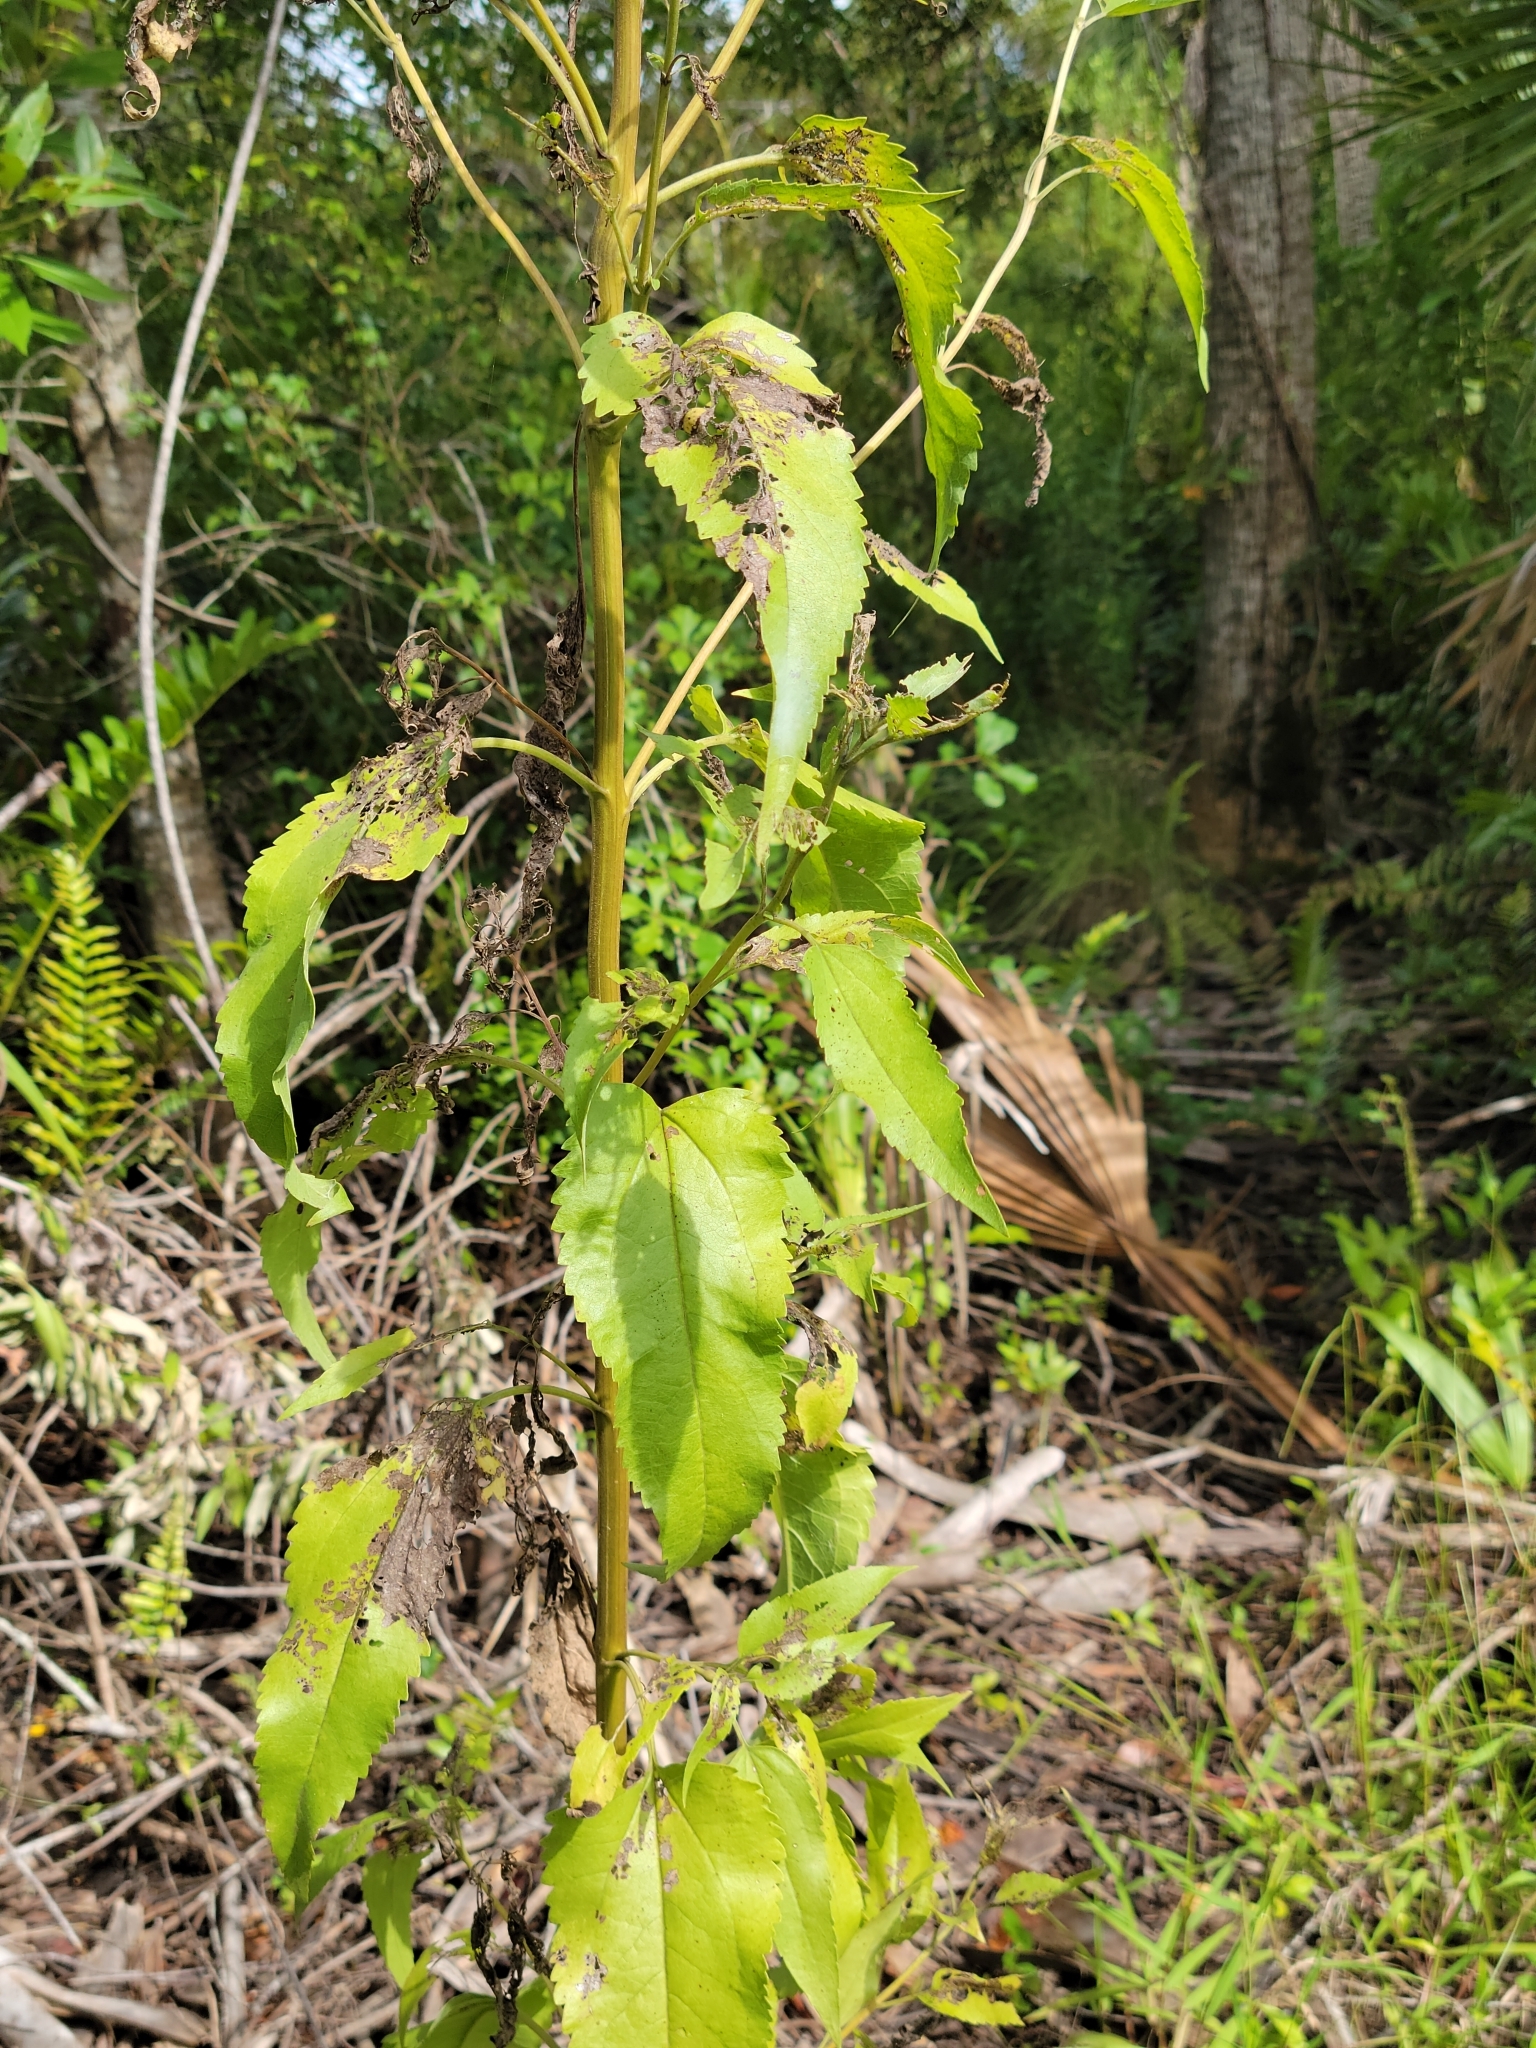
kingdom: Plantae
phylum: Tracheophyta
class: Magnoliopsida
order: Asterales
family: Asteraceae
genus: Eupatorium
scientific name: Eupatorium serotinum
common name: Late boneset
